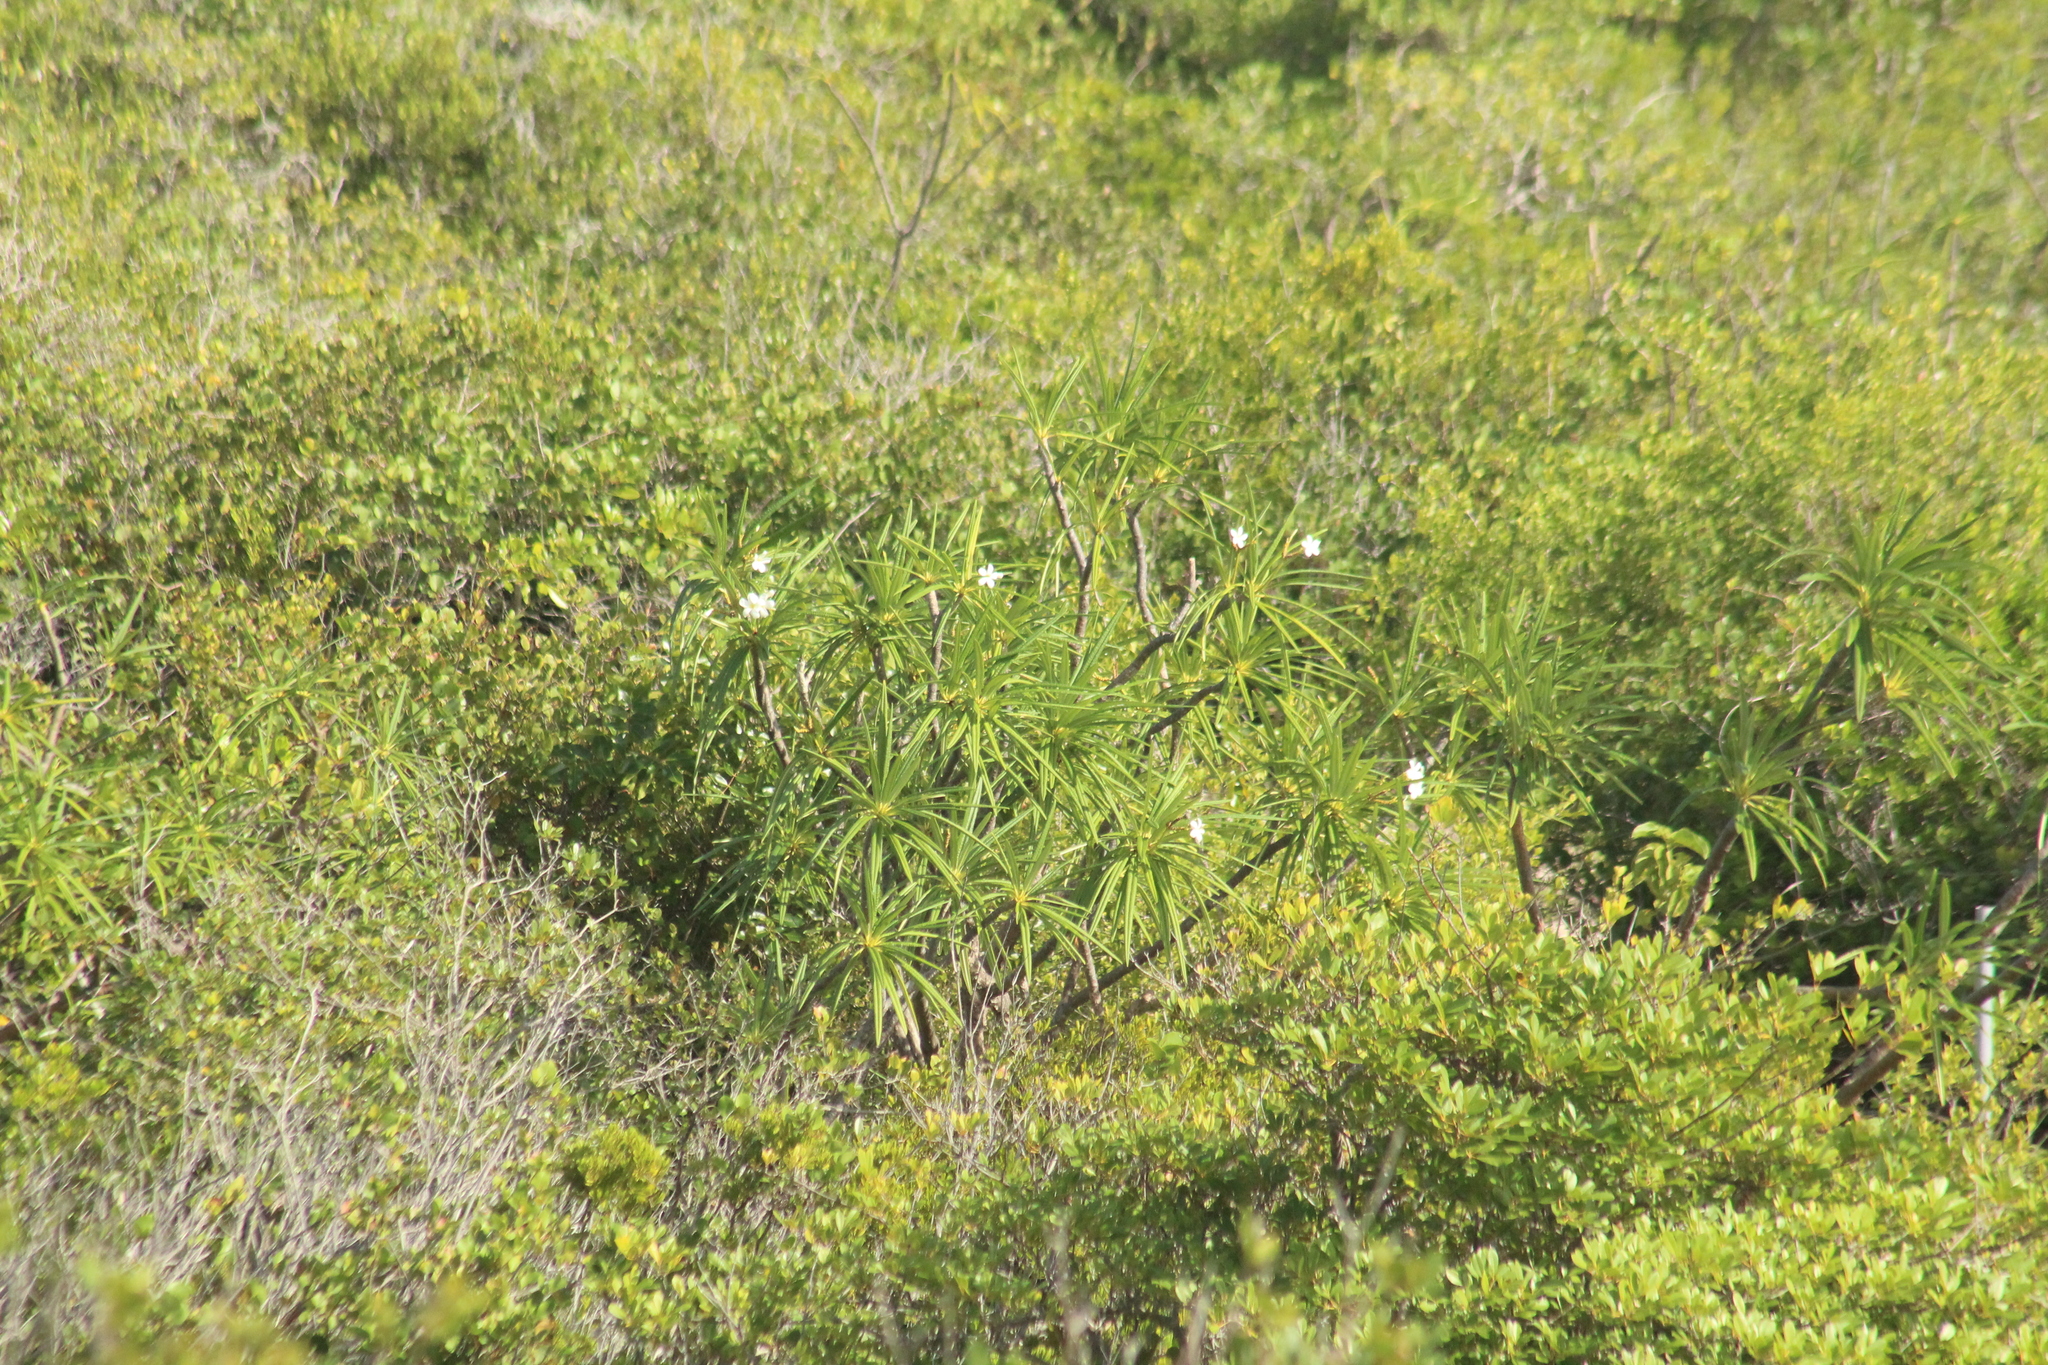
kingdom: Plantae
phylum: Tracheophyta
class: Magnoliopsida
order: Gentianales
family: Apocynaceae
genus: Plumeria
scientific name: Plumeria alba
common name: Wild frangipani
